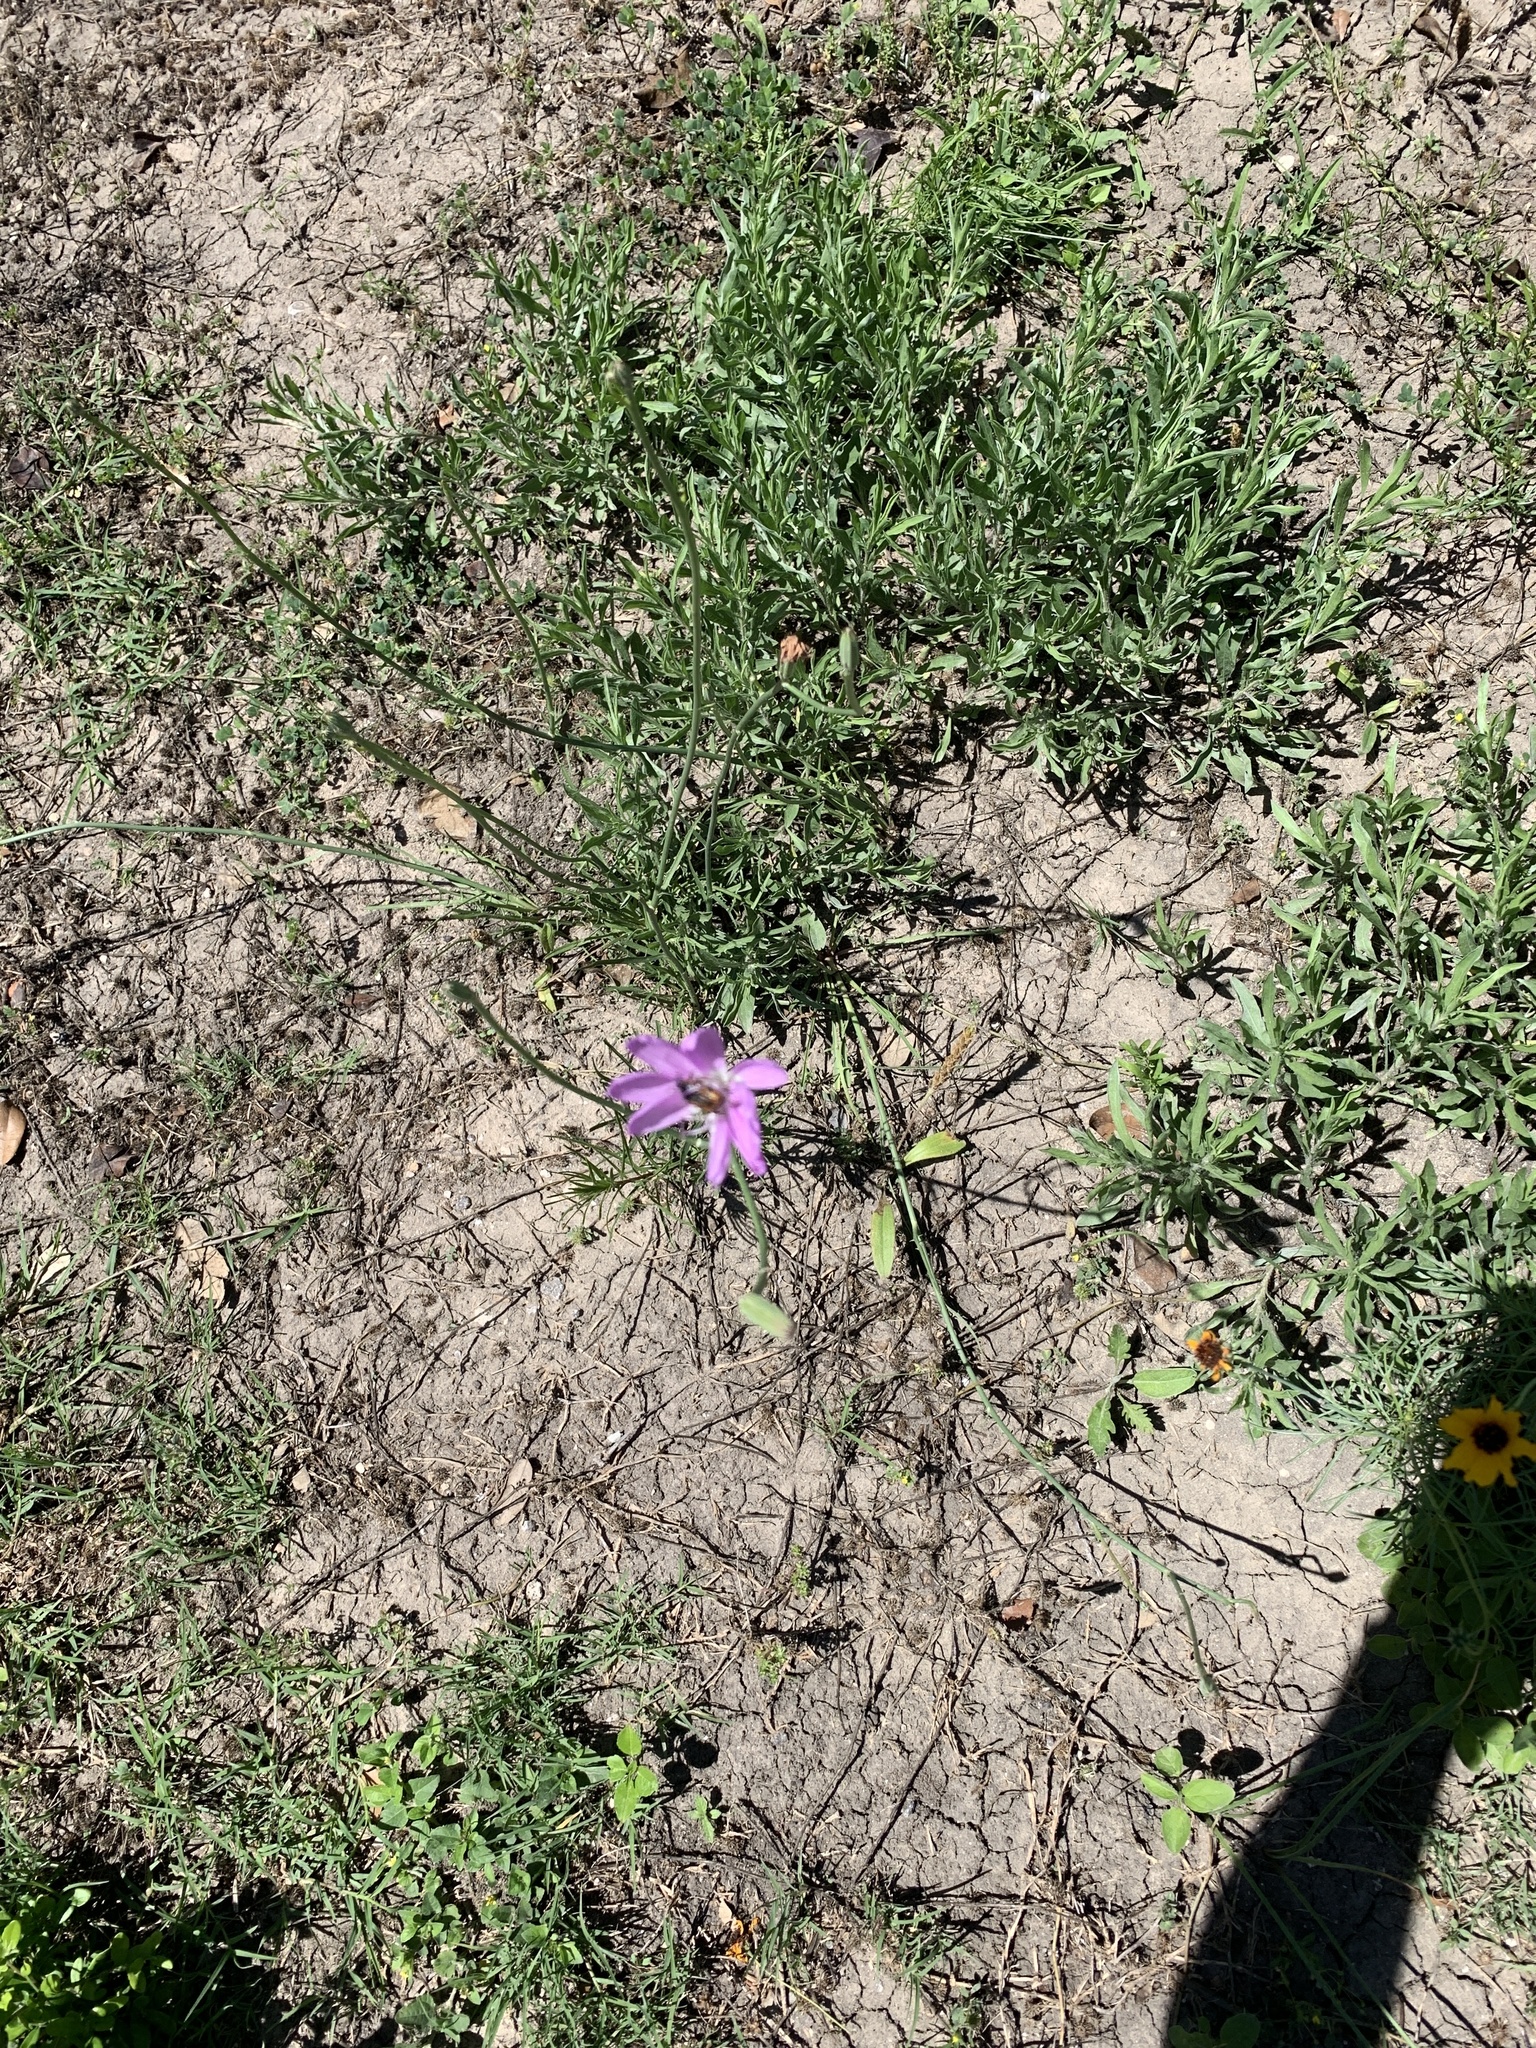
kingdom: Plantae
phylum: Tracheophyta
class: Magnoliopsida
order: Asterales
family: Asteraceae
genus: Lygodesmia
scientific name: Lygodesmia texana
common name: Texas skeleton-plant
